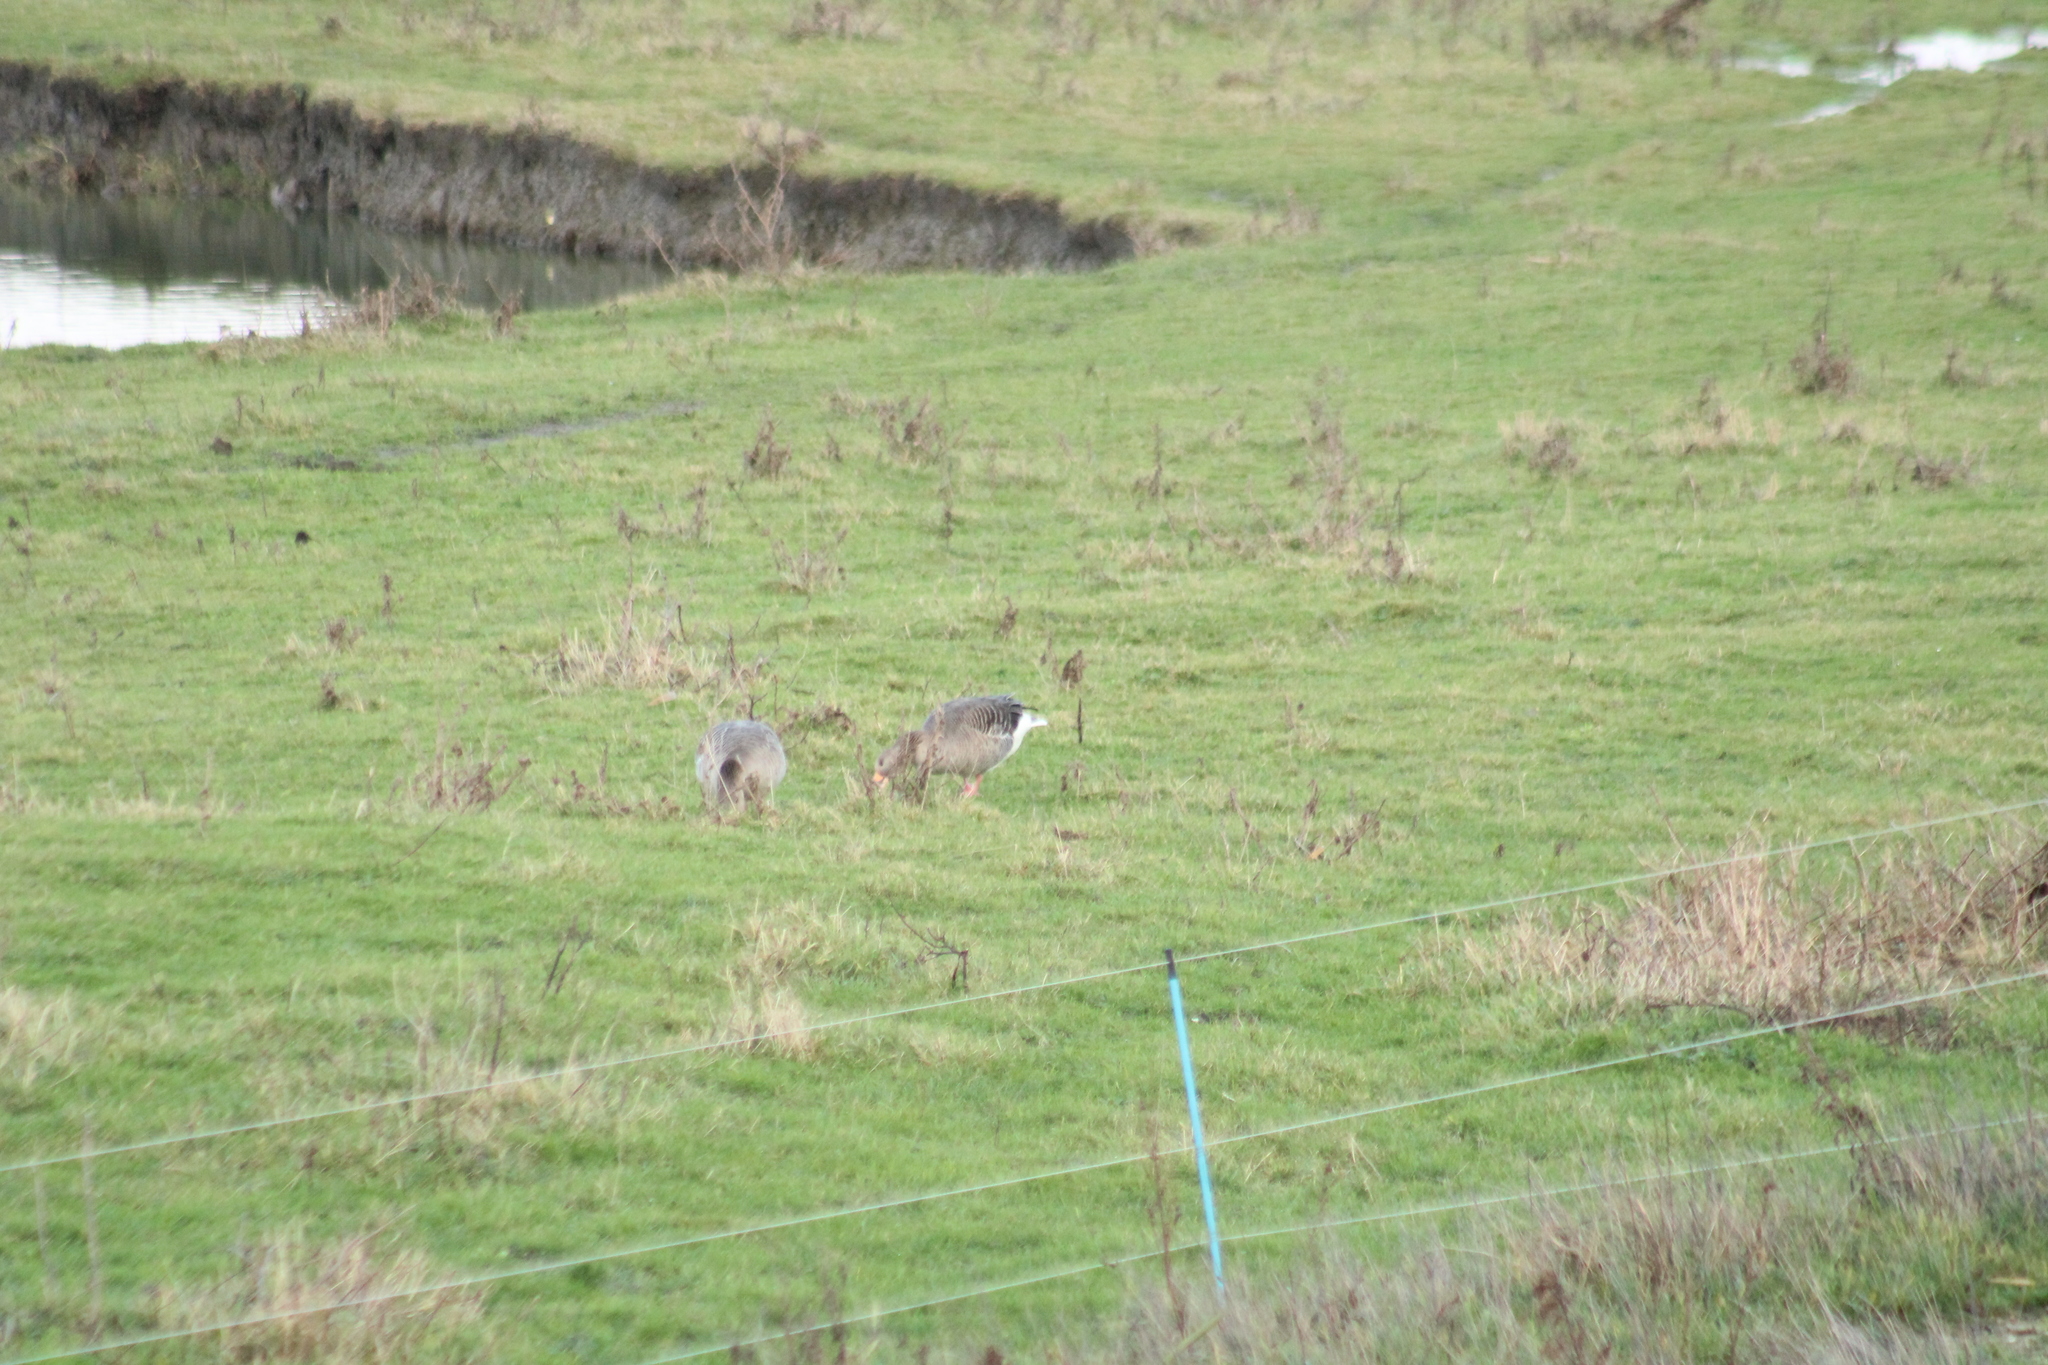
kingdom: Animalia
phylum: Chordata
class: Aves
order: Anseriformes
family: Anatidae
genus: Anser
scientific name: Anser anser
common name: Greylag goose
